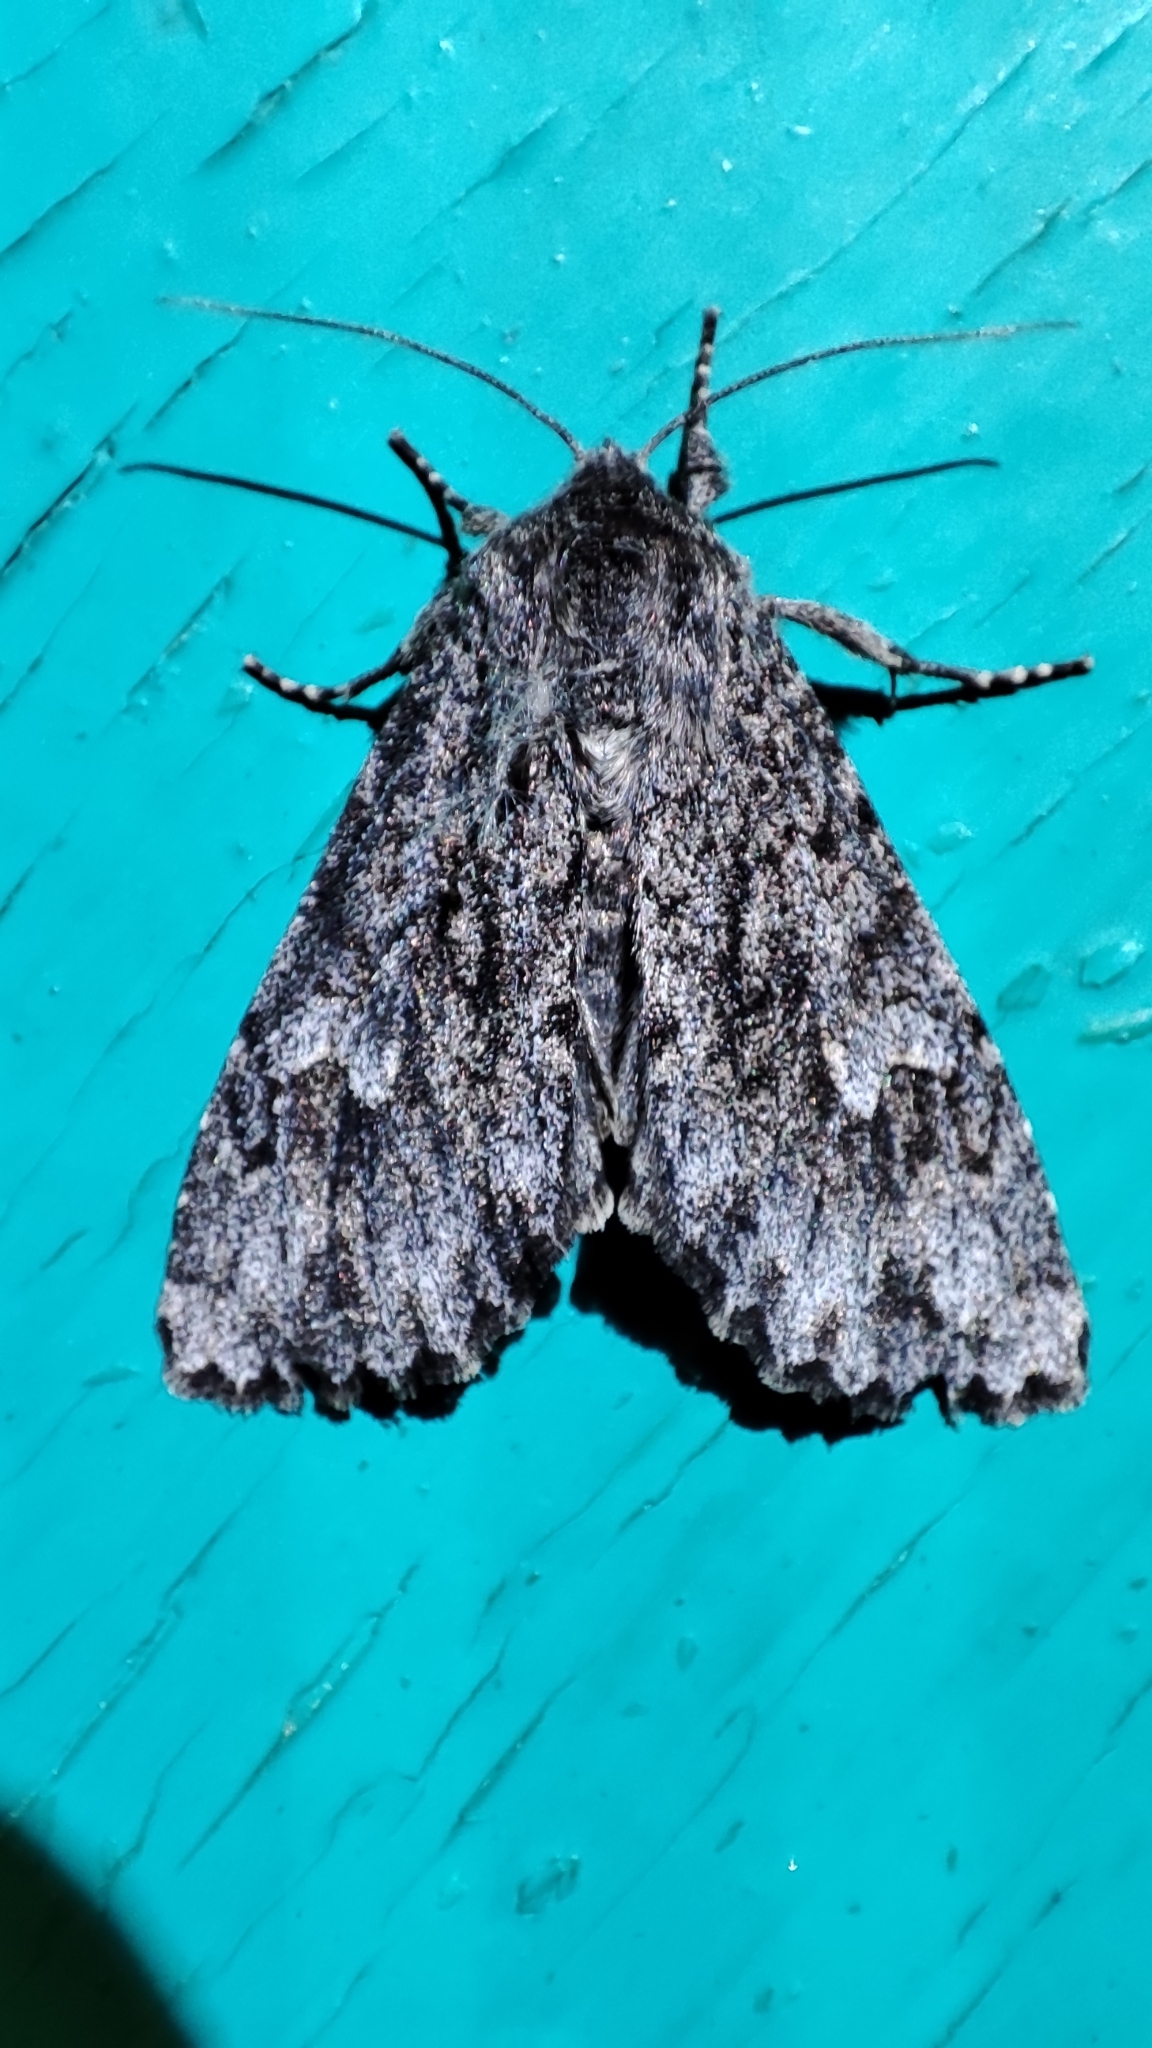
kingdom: Animalia
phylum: Arthropoda
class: Insecta
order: Lepidoptera
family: Noctuidae
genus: Polia
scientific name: Polia vespertilio
